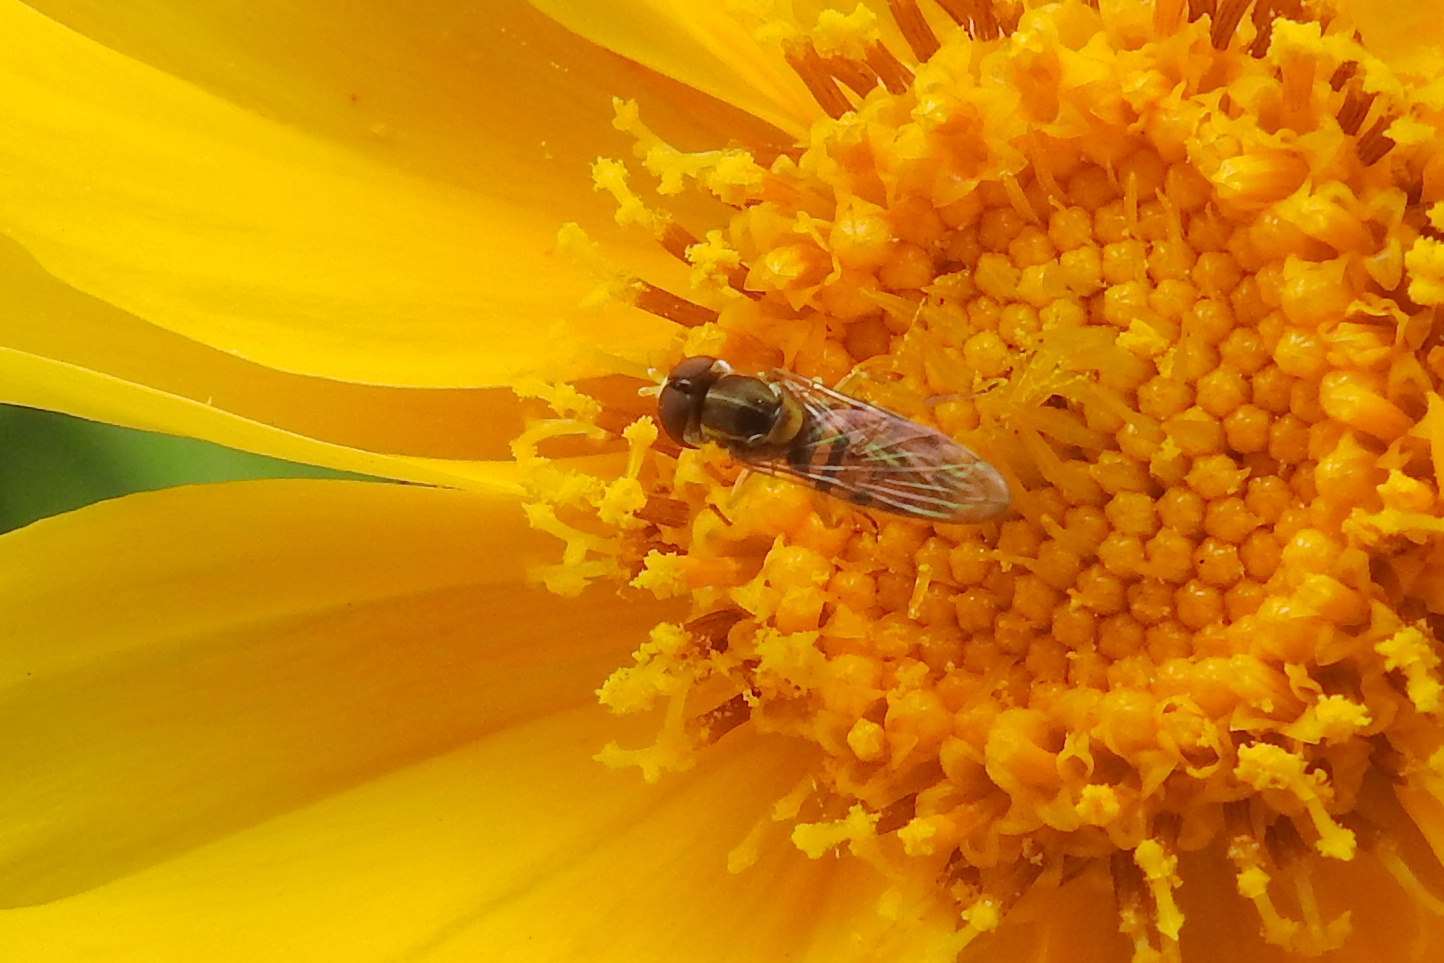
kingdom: Animalia
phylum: Arthropoda
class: Insecta
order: Diptera
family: Syrphidae
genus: Toxomerus
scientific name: Toxomerus marginatus
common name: Syrphid fly
